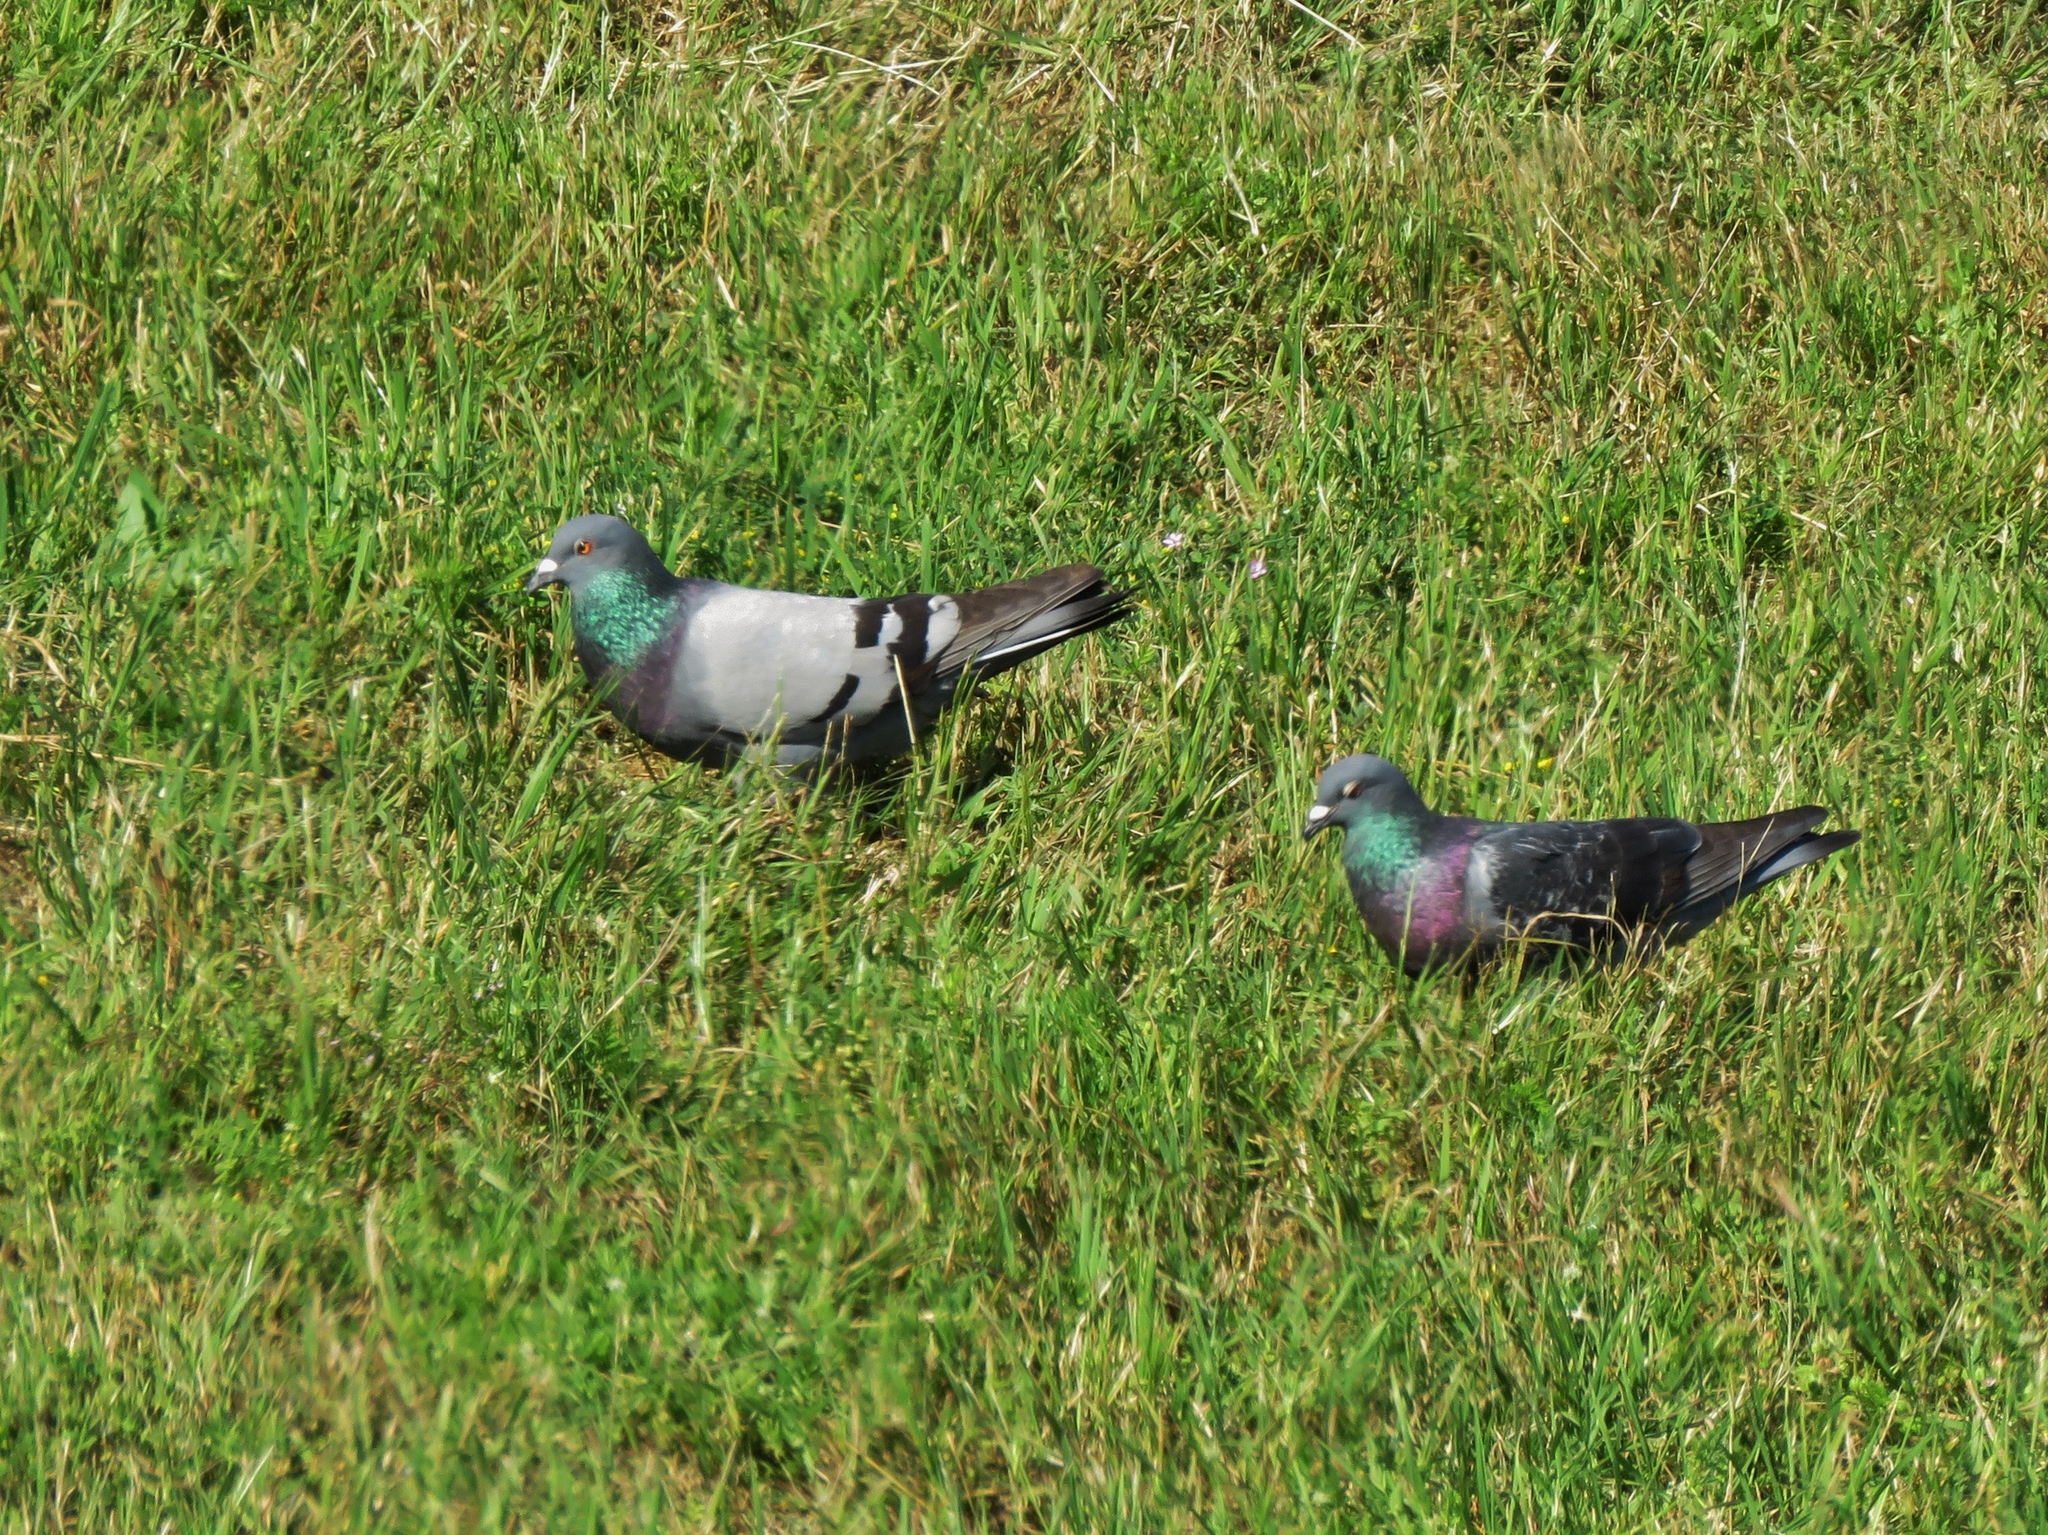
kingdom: Animalia
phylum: Chordata
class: Aves
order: Columbiformes
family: Columbidae
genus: Columba
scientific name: Columba livia
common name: Rock pigeon
